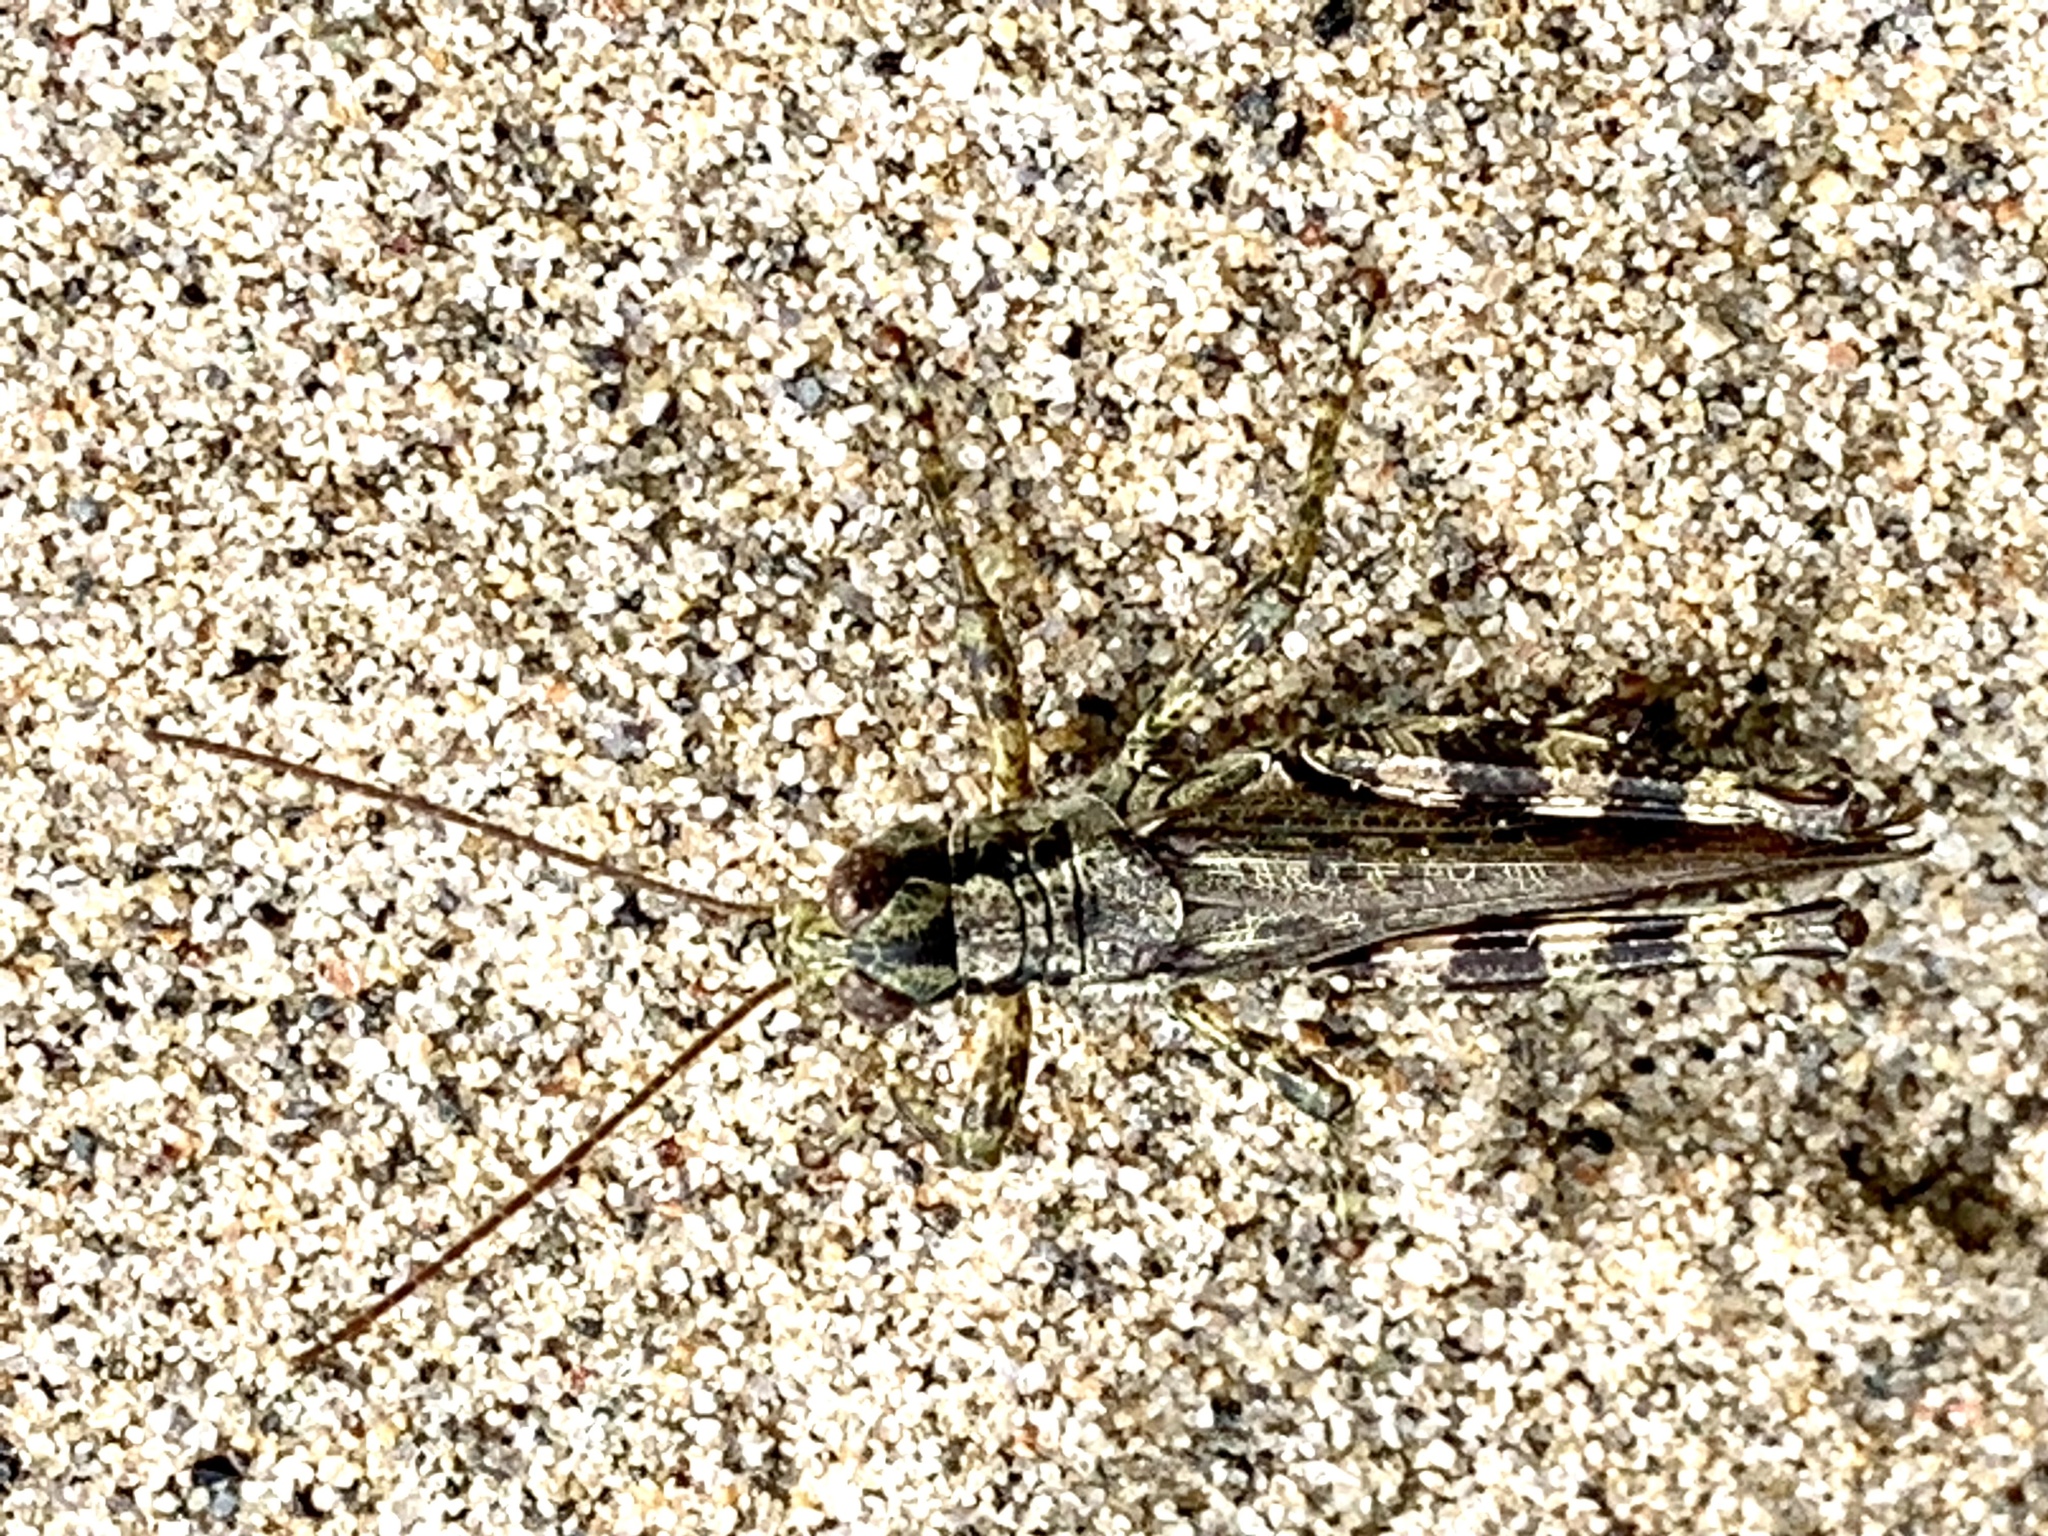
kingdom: Animalia
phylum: Arthropoda
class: Insecta
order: Orthoptera
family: Acrididae
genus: Melanoplus
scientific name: Melanoplus punctulatus
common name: Pine-tree spur-throat grasshopper
